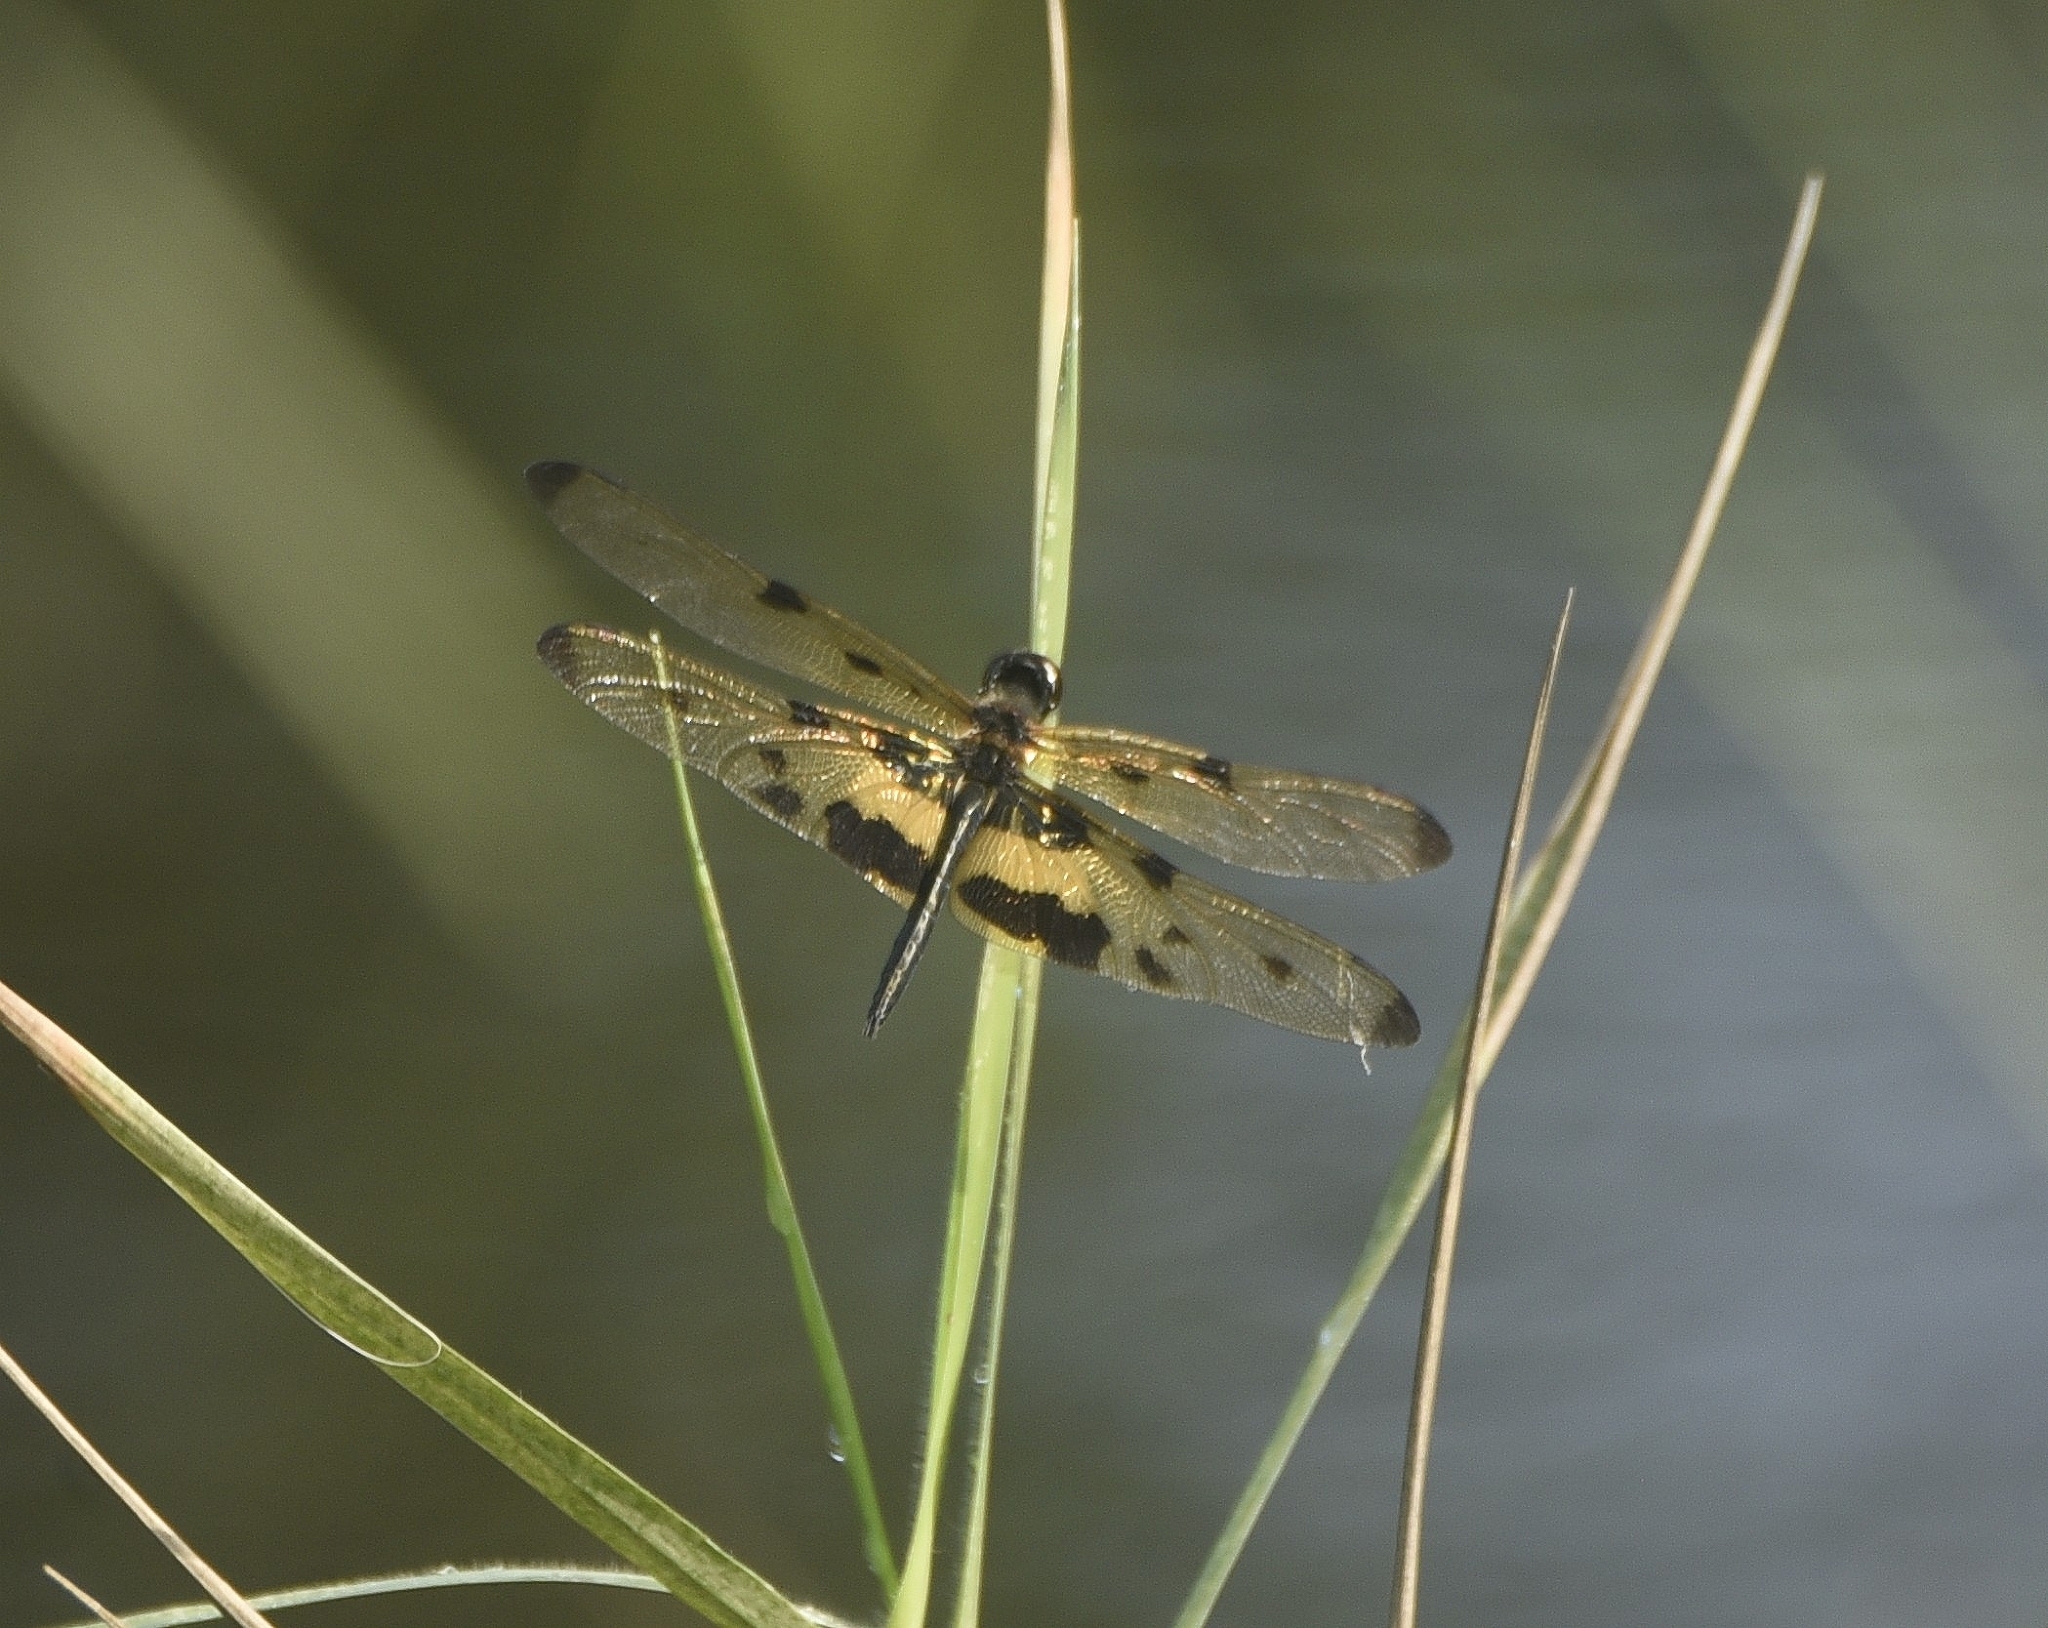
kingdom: Animalia
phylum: Arthropoda
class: Insecta
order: Odonata
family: Libellulidae
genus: Rhyothemis
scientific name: Rhyothemis variegata
